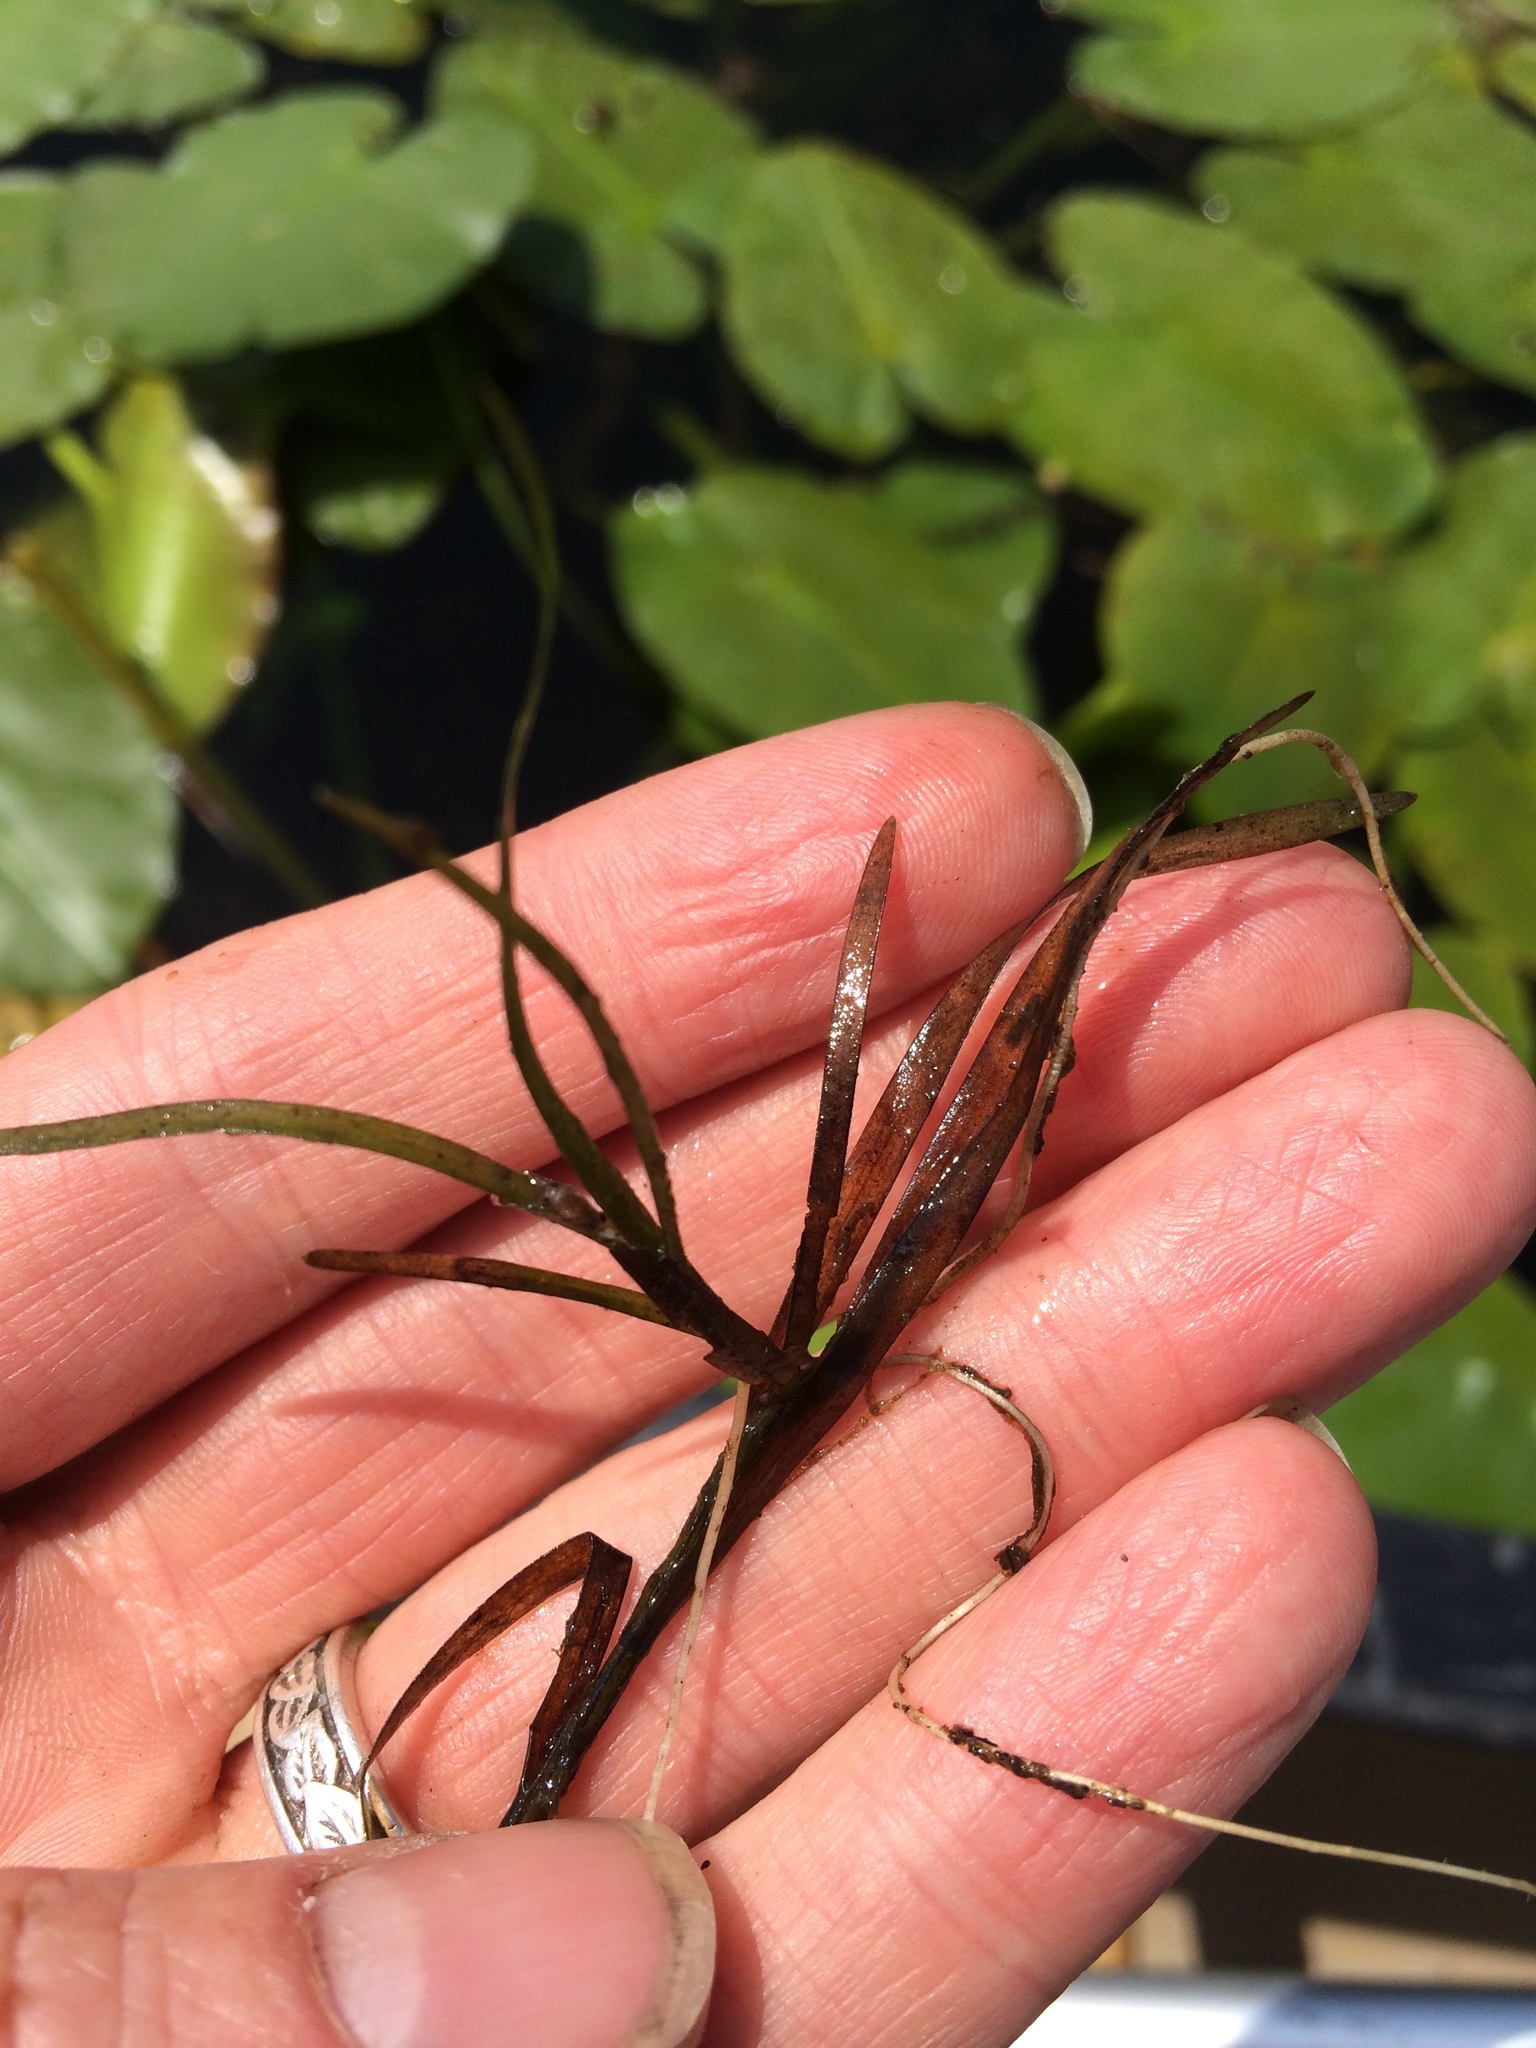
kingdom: Plantae
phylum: Tracheophyta
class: Liliopsida
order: Commelinales
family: Pontederiaceae
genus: Heteranthera
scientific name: Heteranthera dubia
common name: Grass-leaved mud plantain
